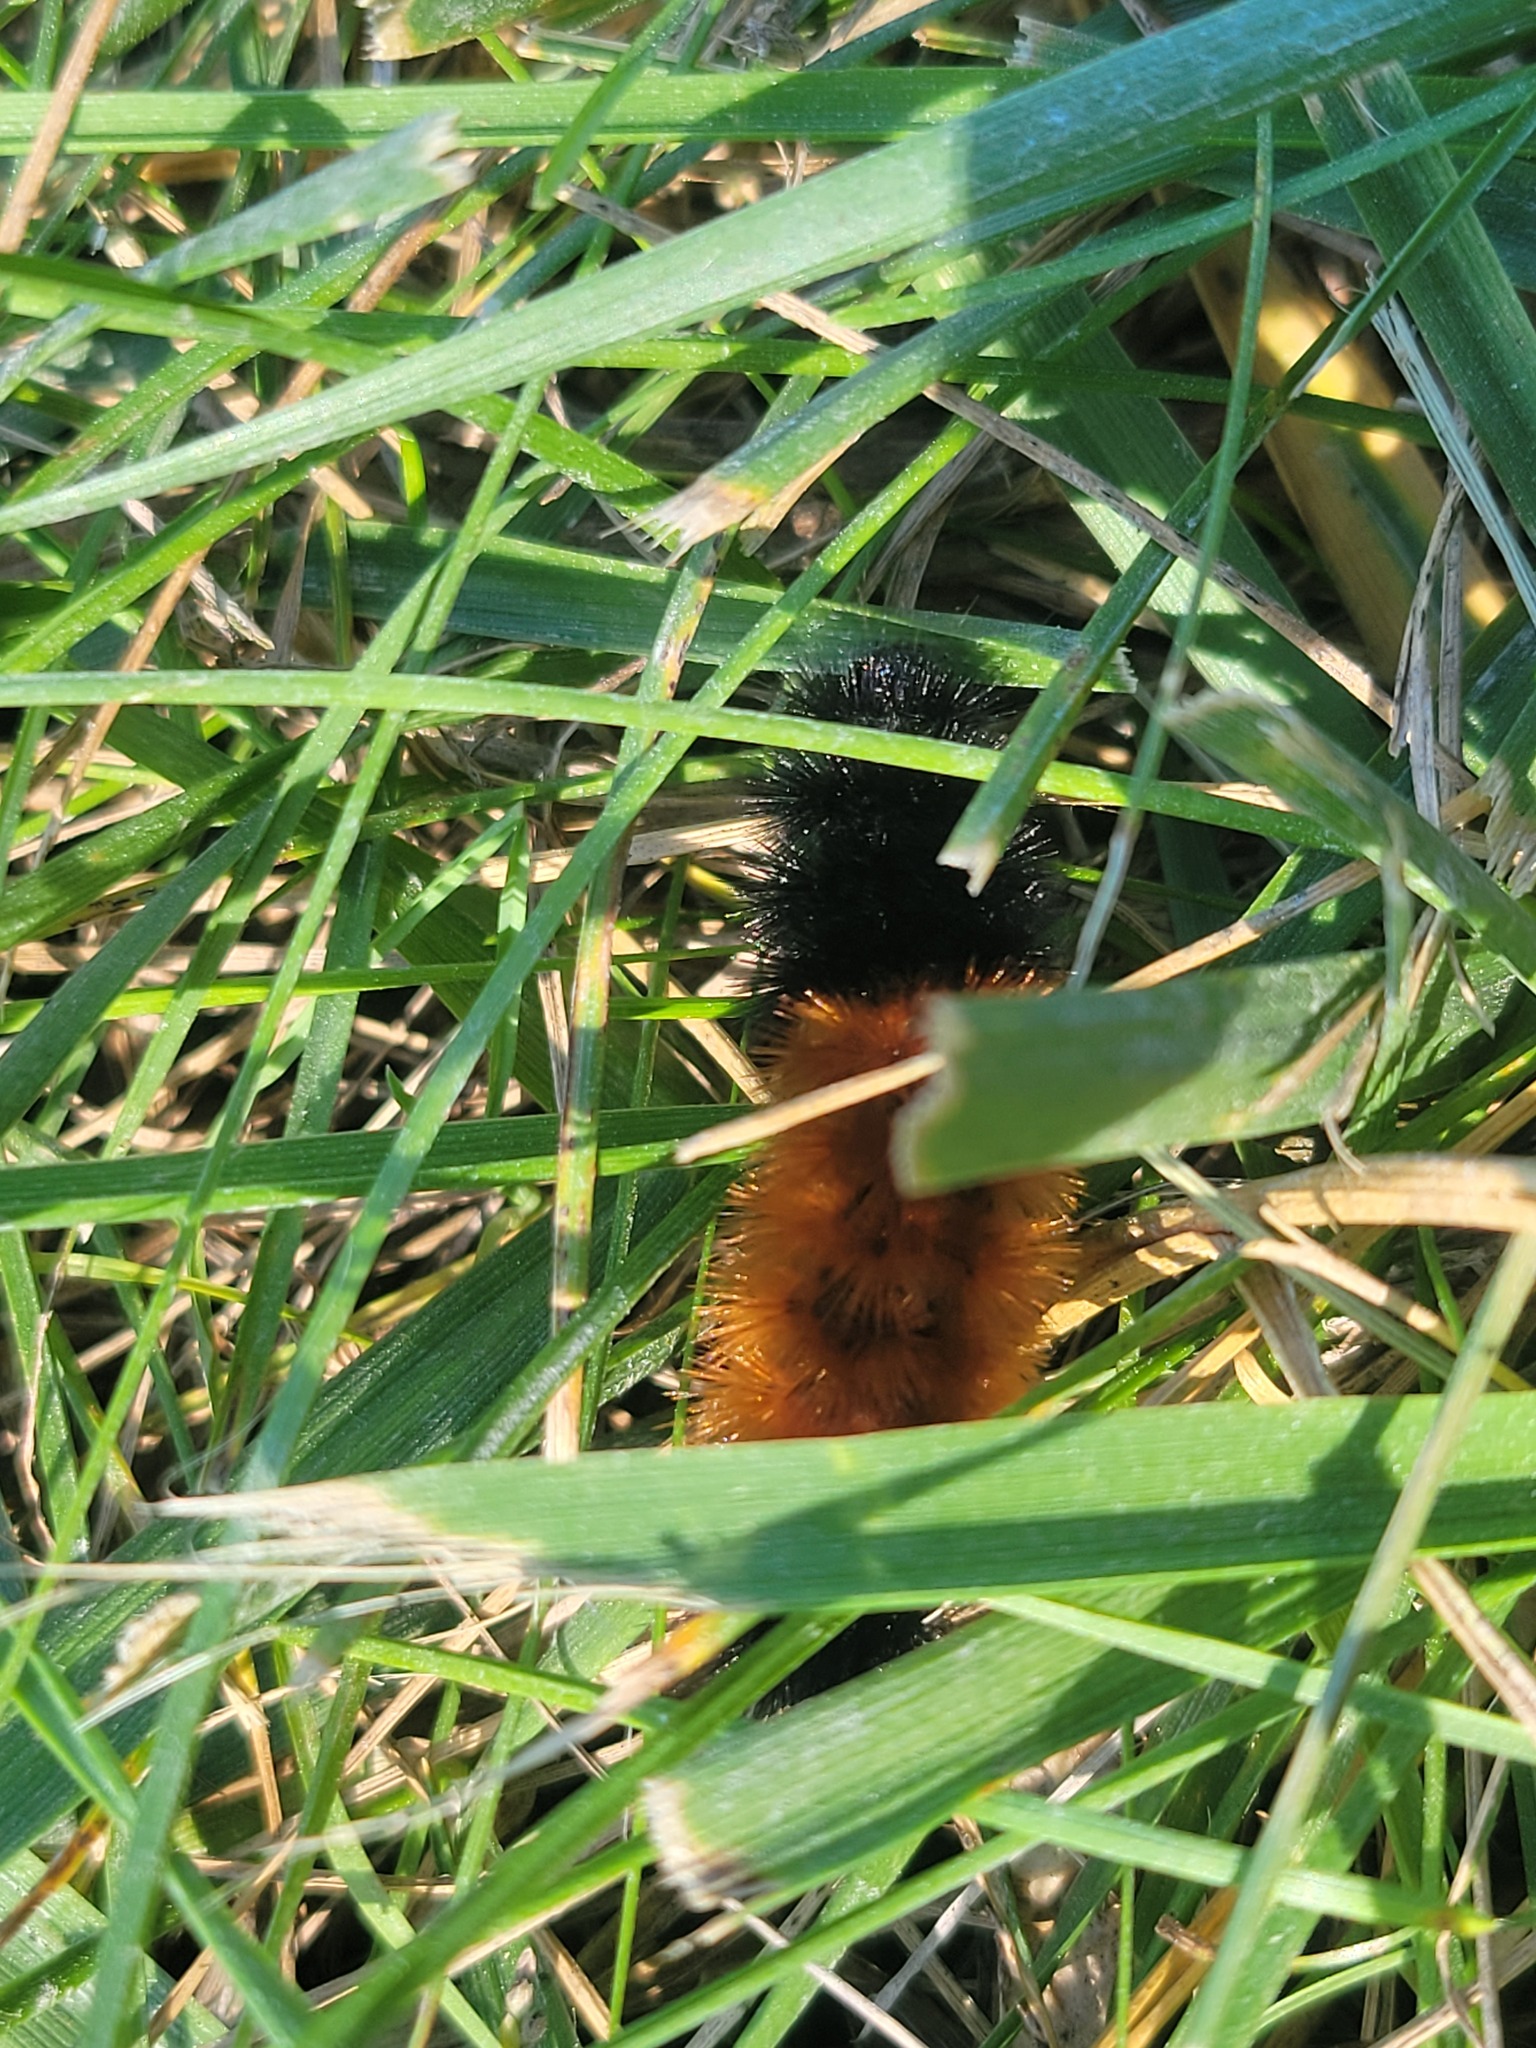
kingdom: Animalia
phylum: Arthropoda
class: Insecta
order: Lepidoptera
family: Erebidae
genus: Pyrrharctia
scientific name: Pyrrharctia isabella
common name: Isabella tiger moth
